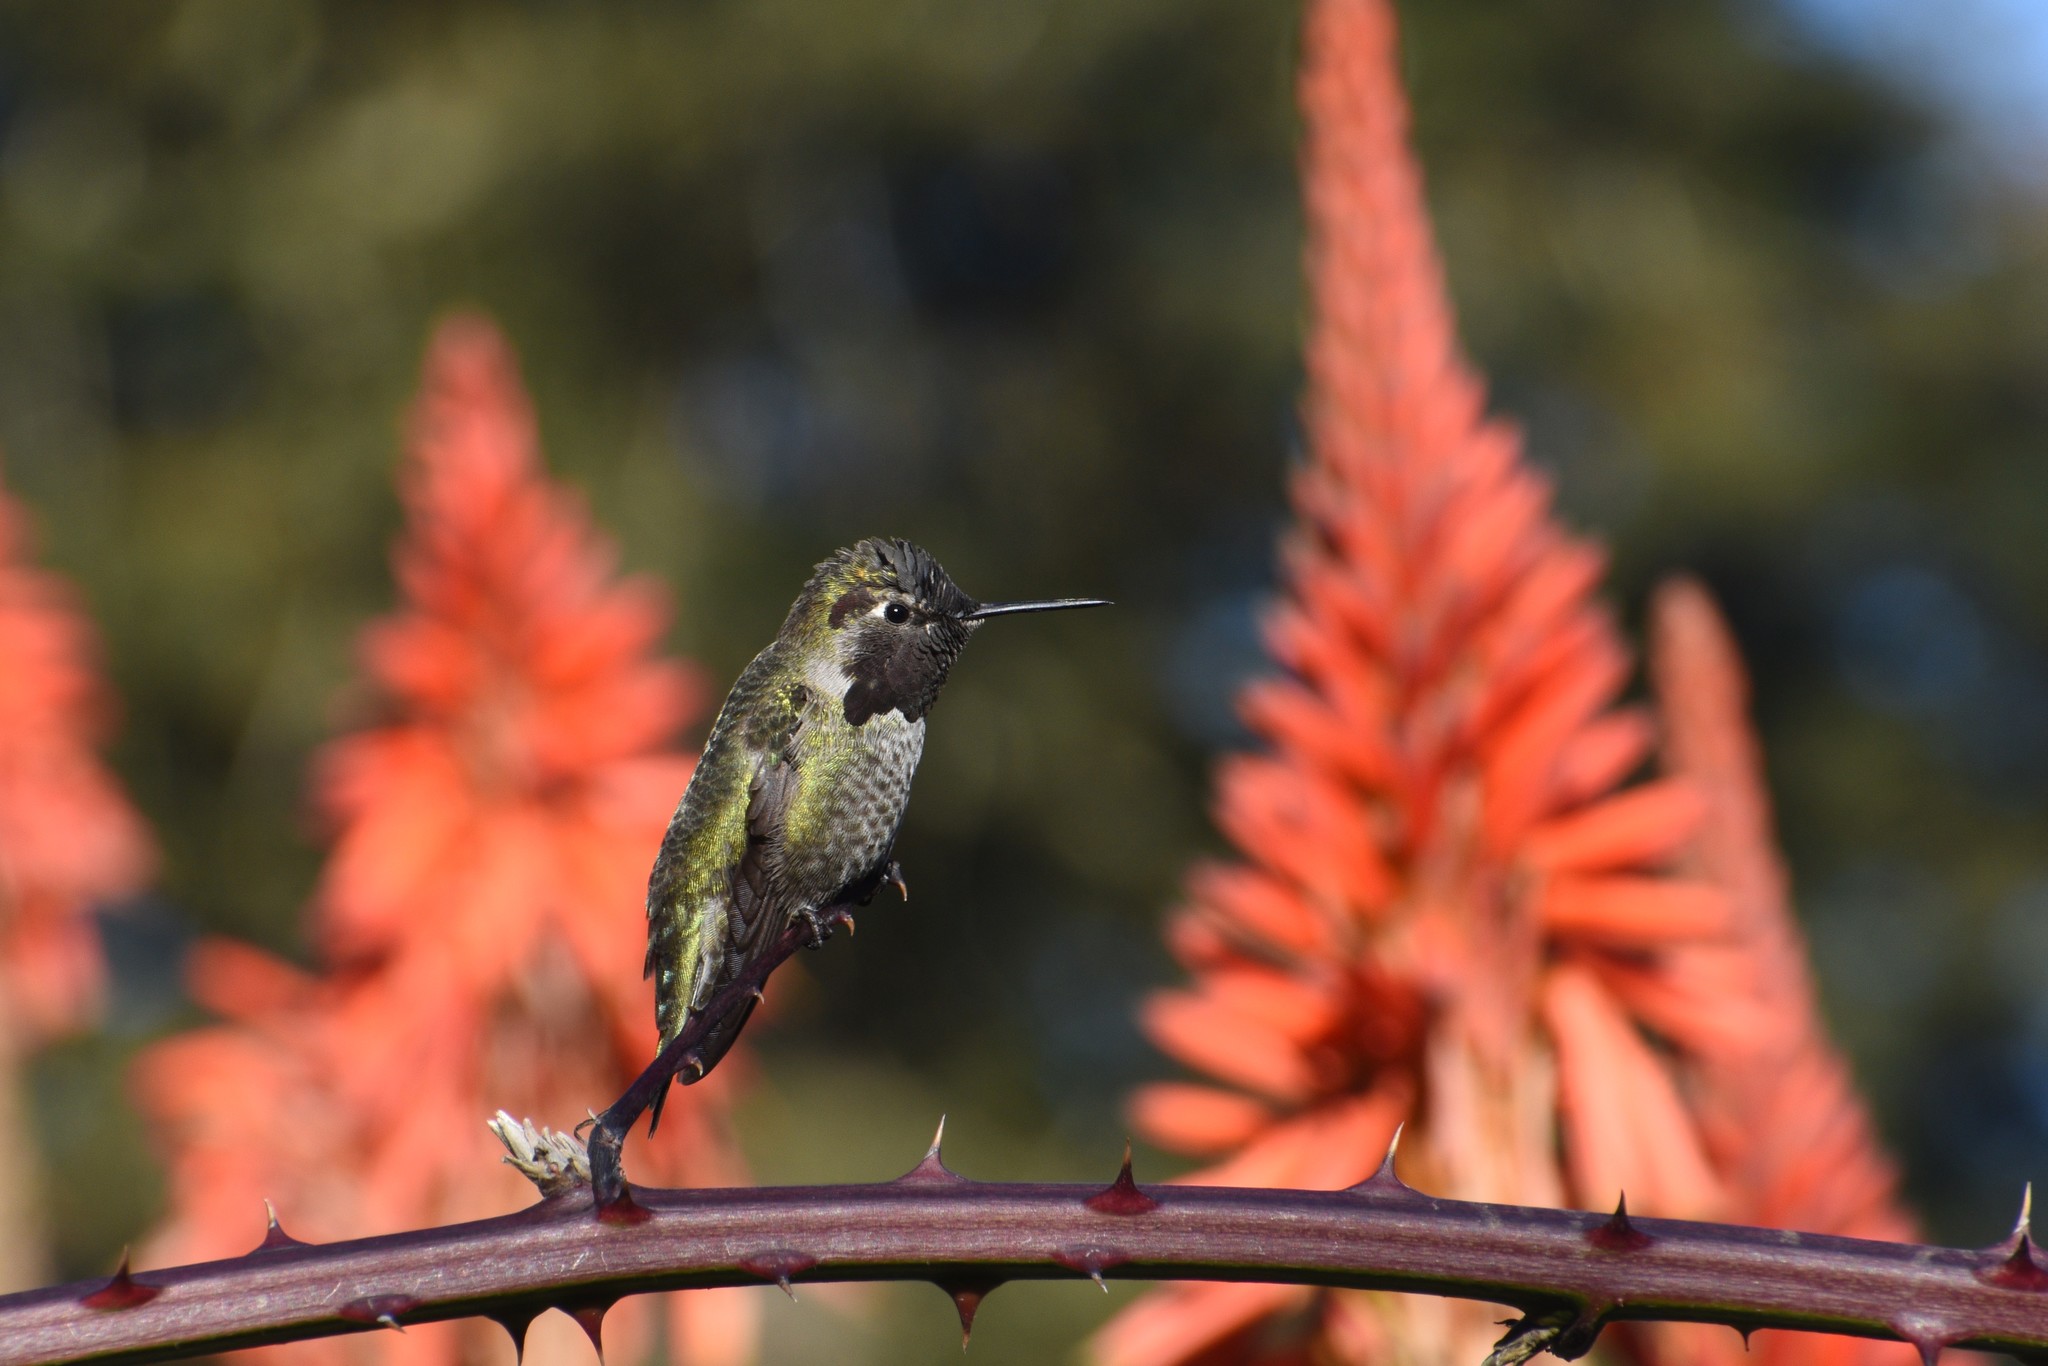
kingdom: Animalia
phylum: Chordata
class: Aves
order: Apodiformes
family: Trochilidae
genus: Calypte
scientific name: Calypte anna
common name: Anna's hummingbird
